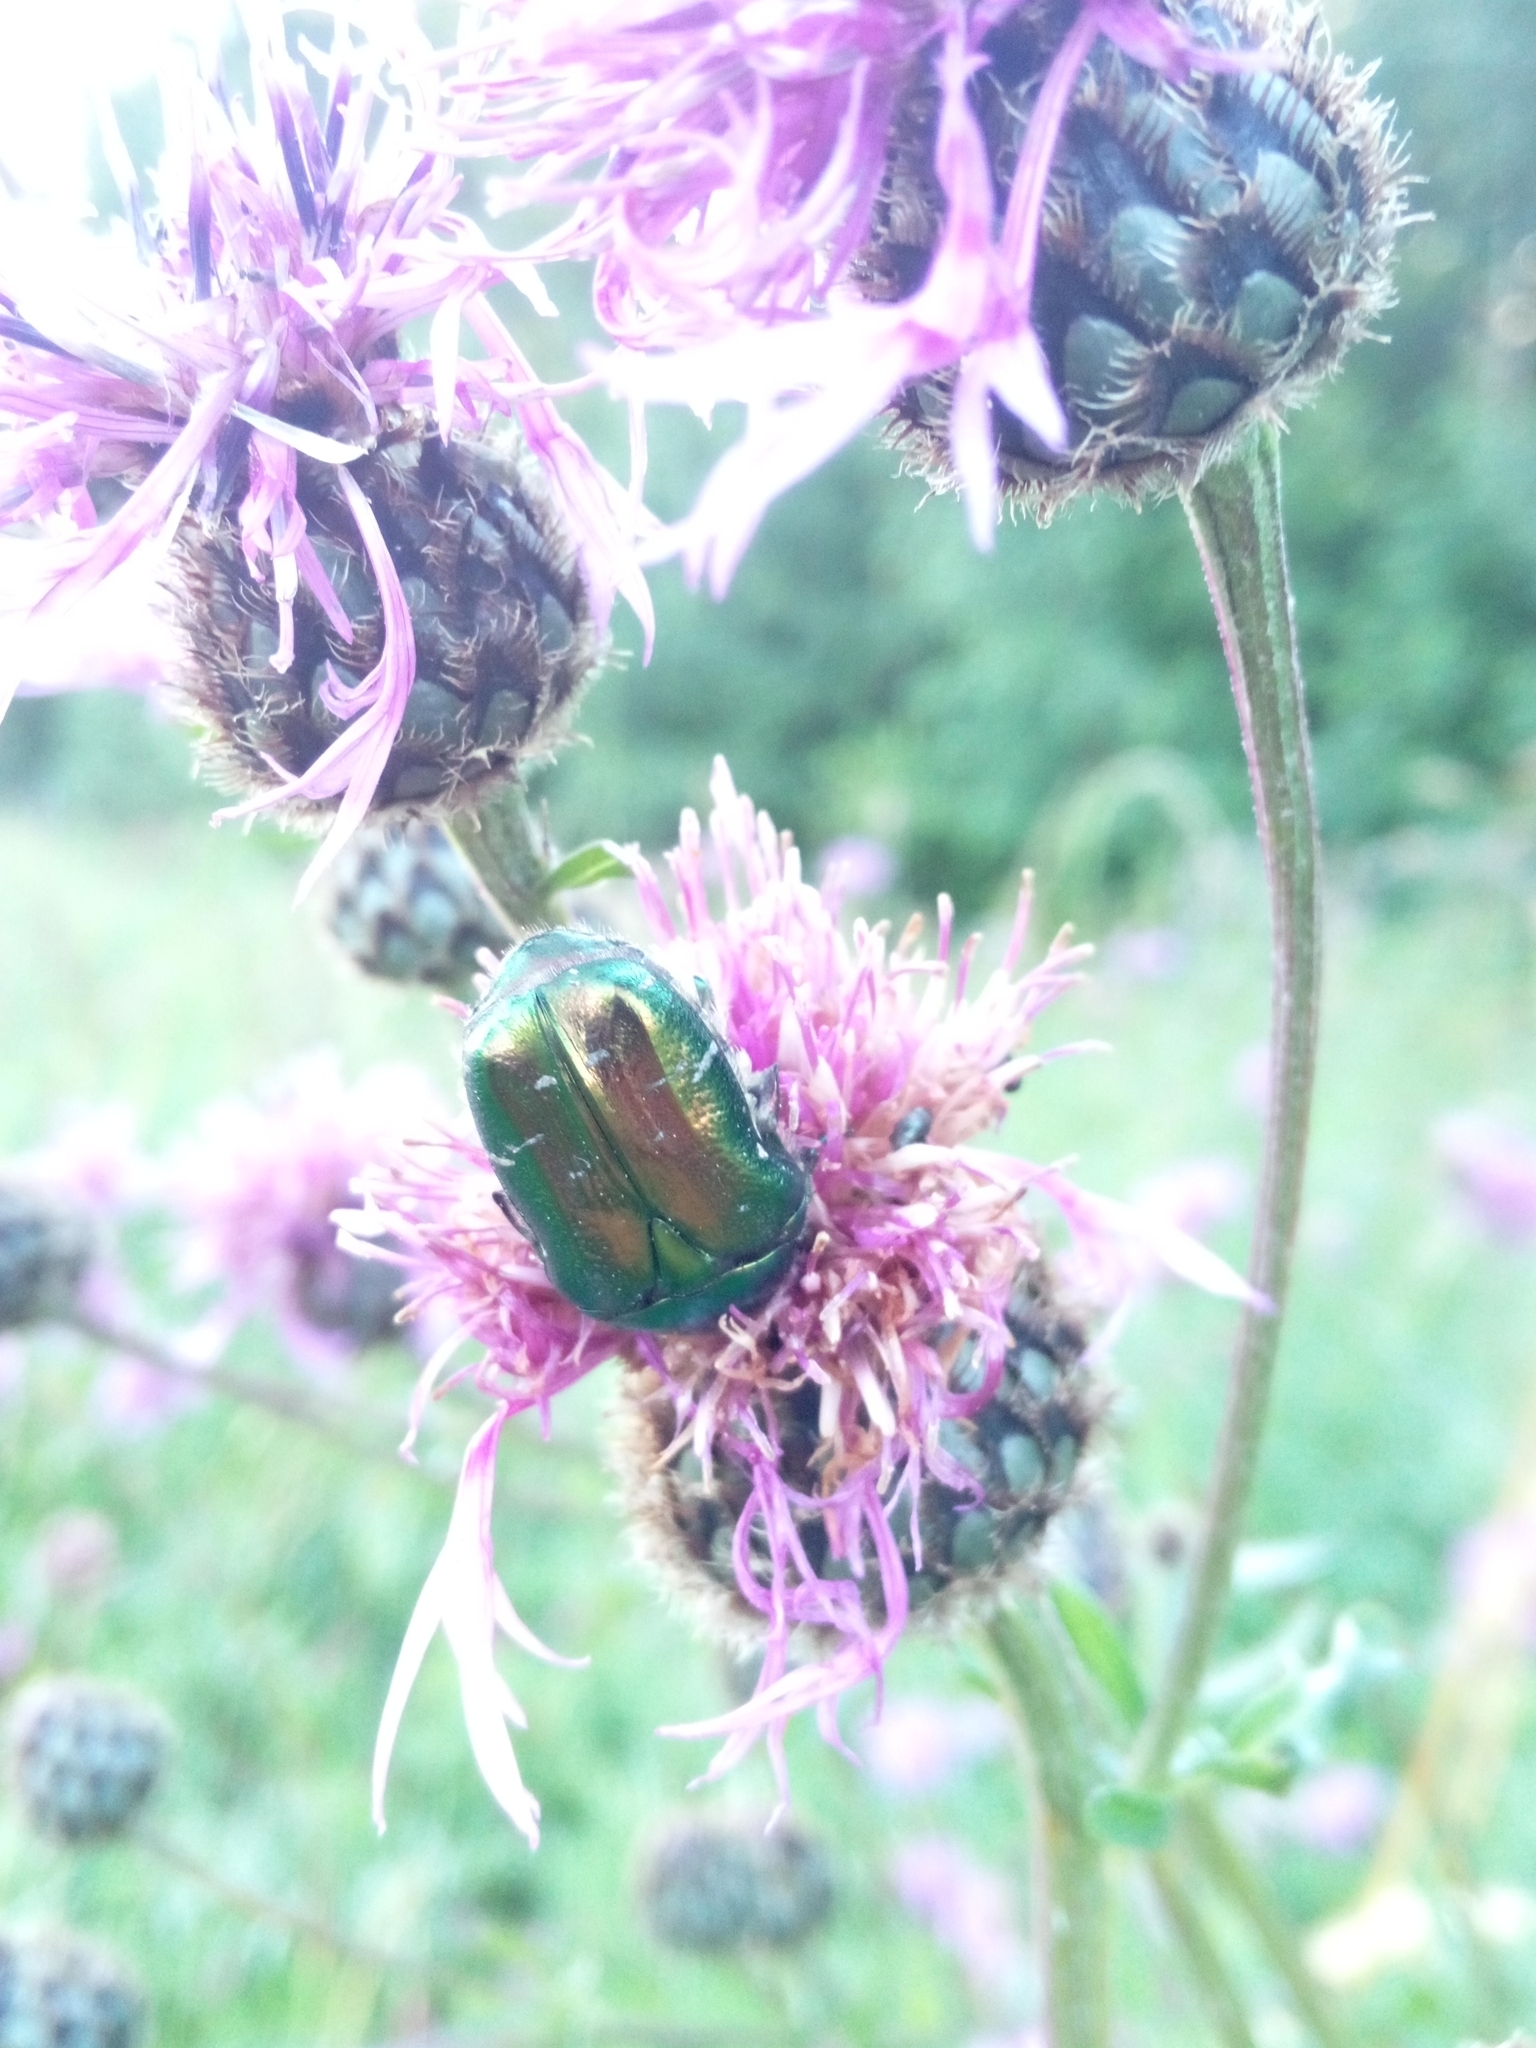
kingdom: Animalia
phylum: Arthropoda
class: Insecta
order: Coleoptera
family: Scarabaeidae
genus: Cetonia
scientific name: Cetonia aurata
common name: Rose chafer
